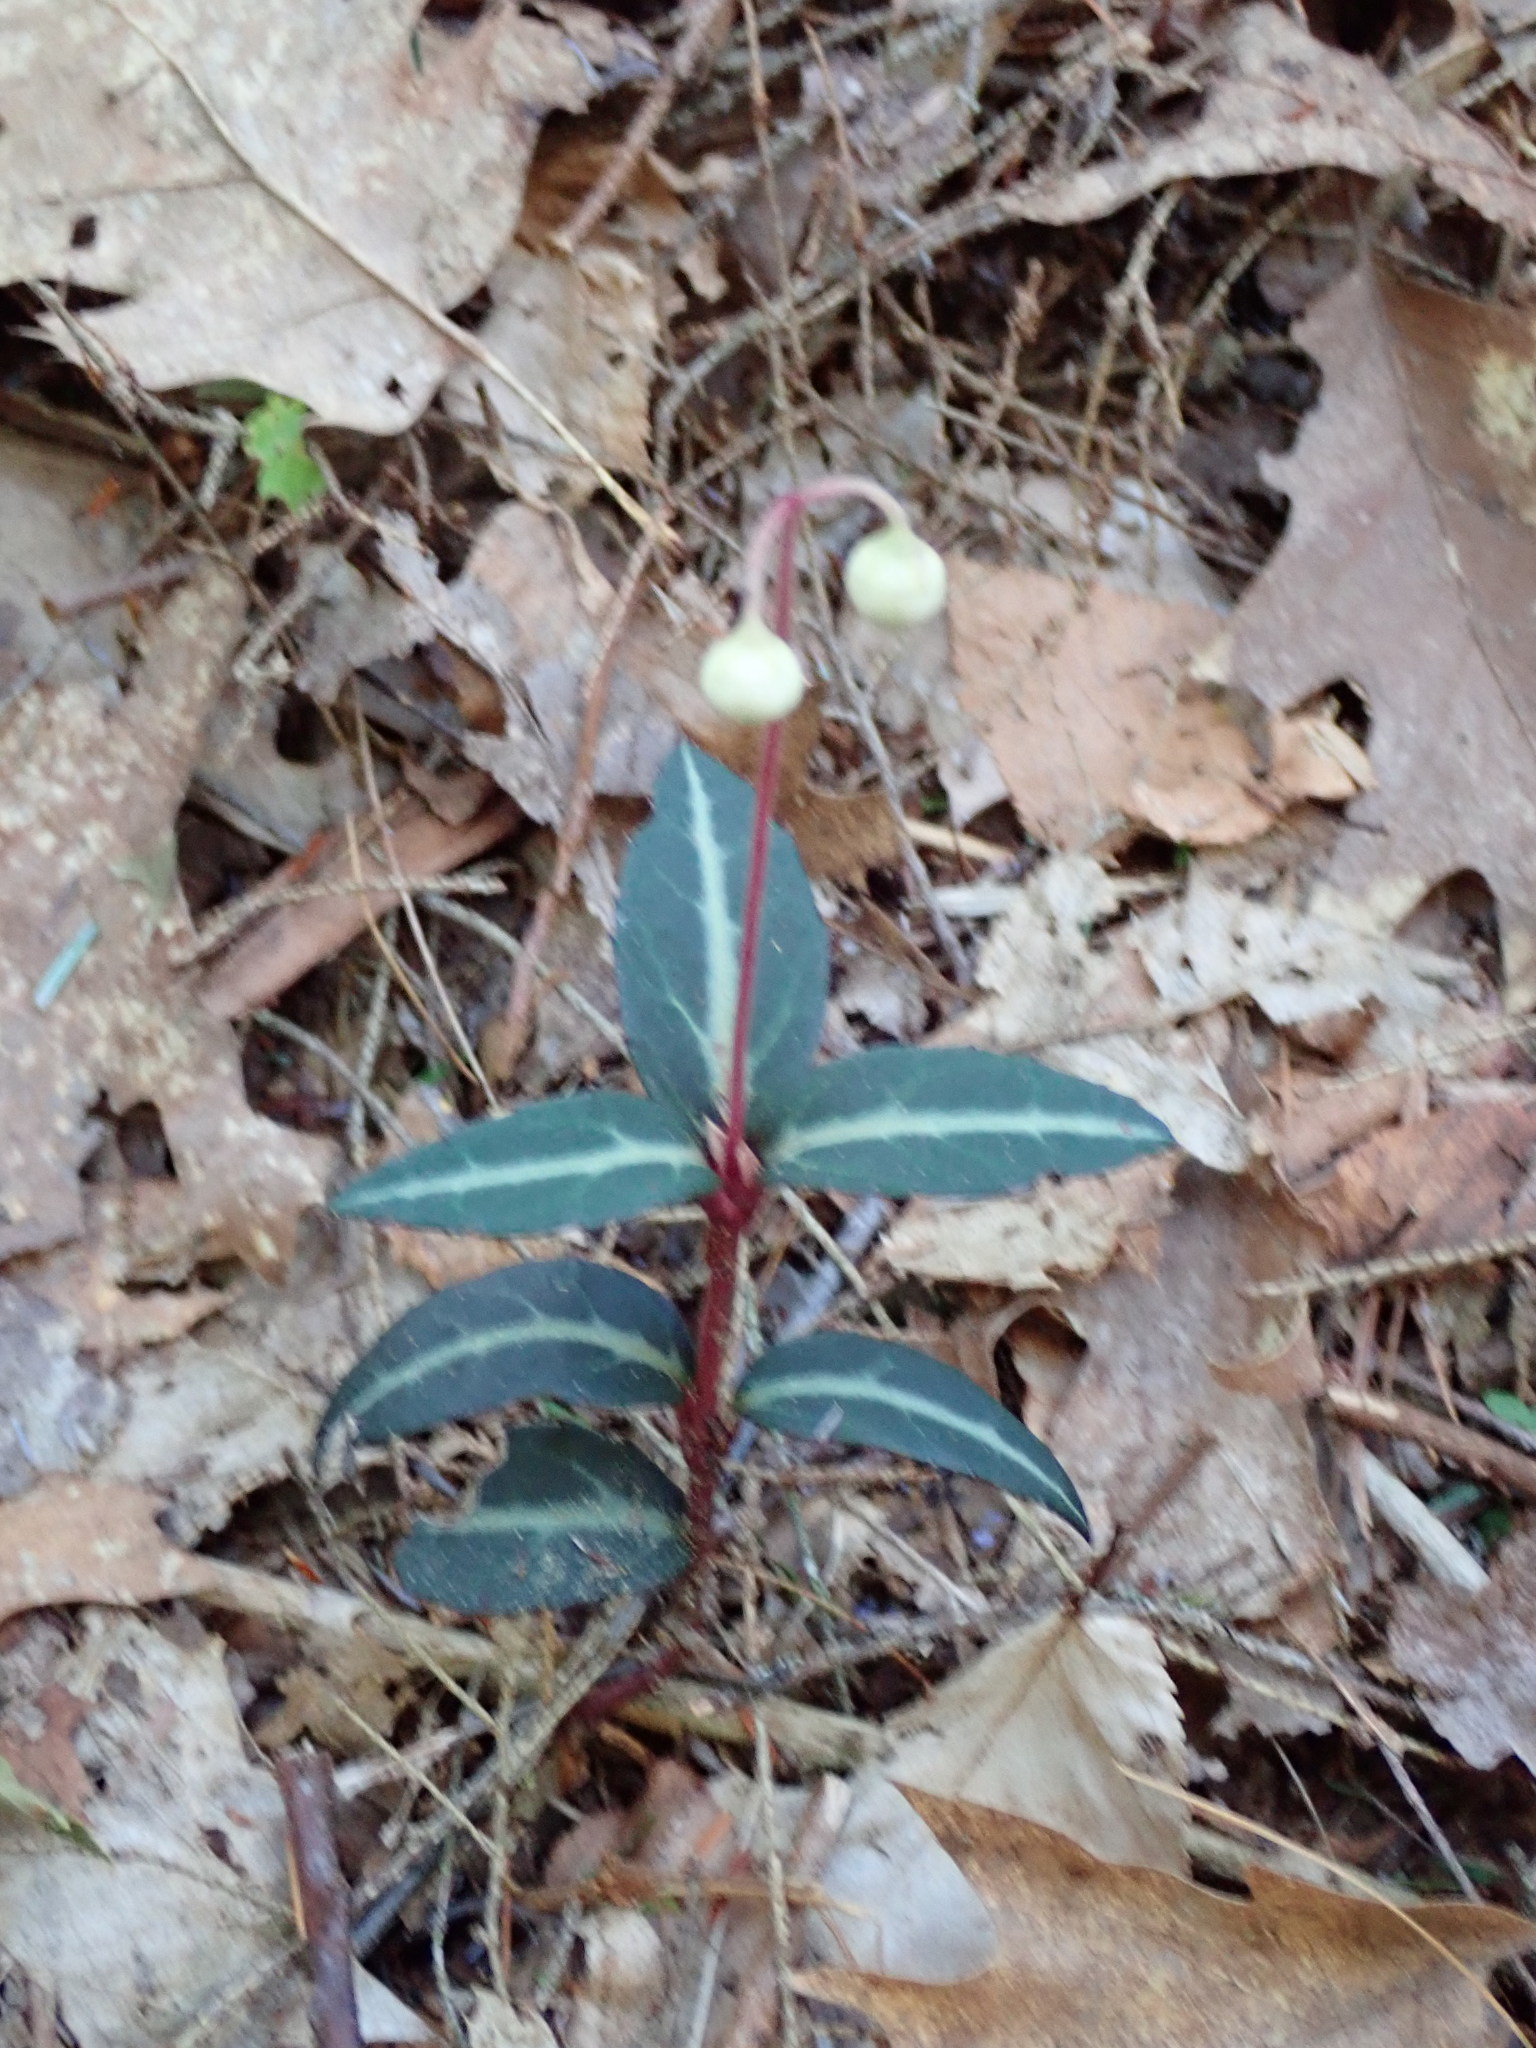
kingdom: Plantae
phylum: Tracheophyta
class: Magnoliopsida
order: Ericales
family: Ericaceae
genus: Chimaphila
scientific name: Chimaphila maculata
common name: Spotted pipsissewa
